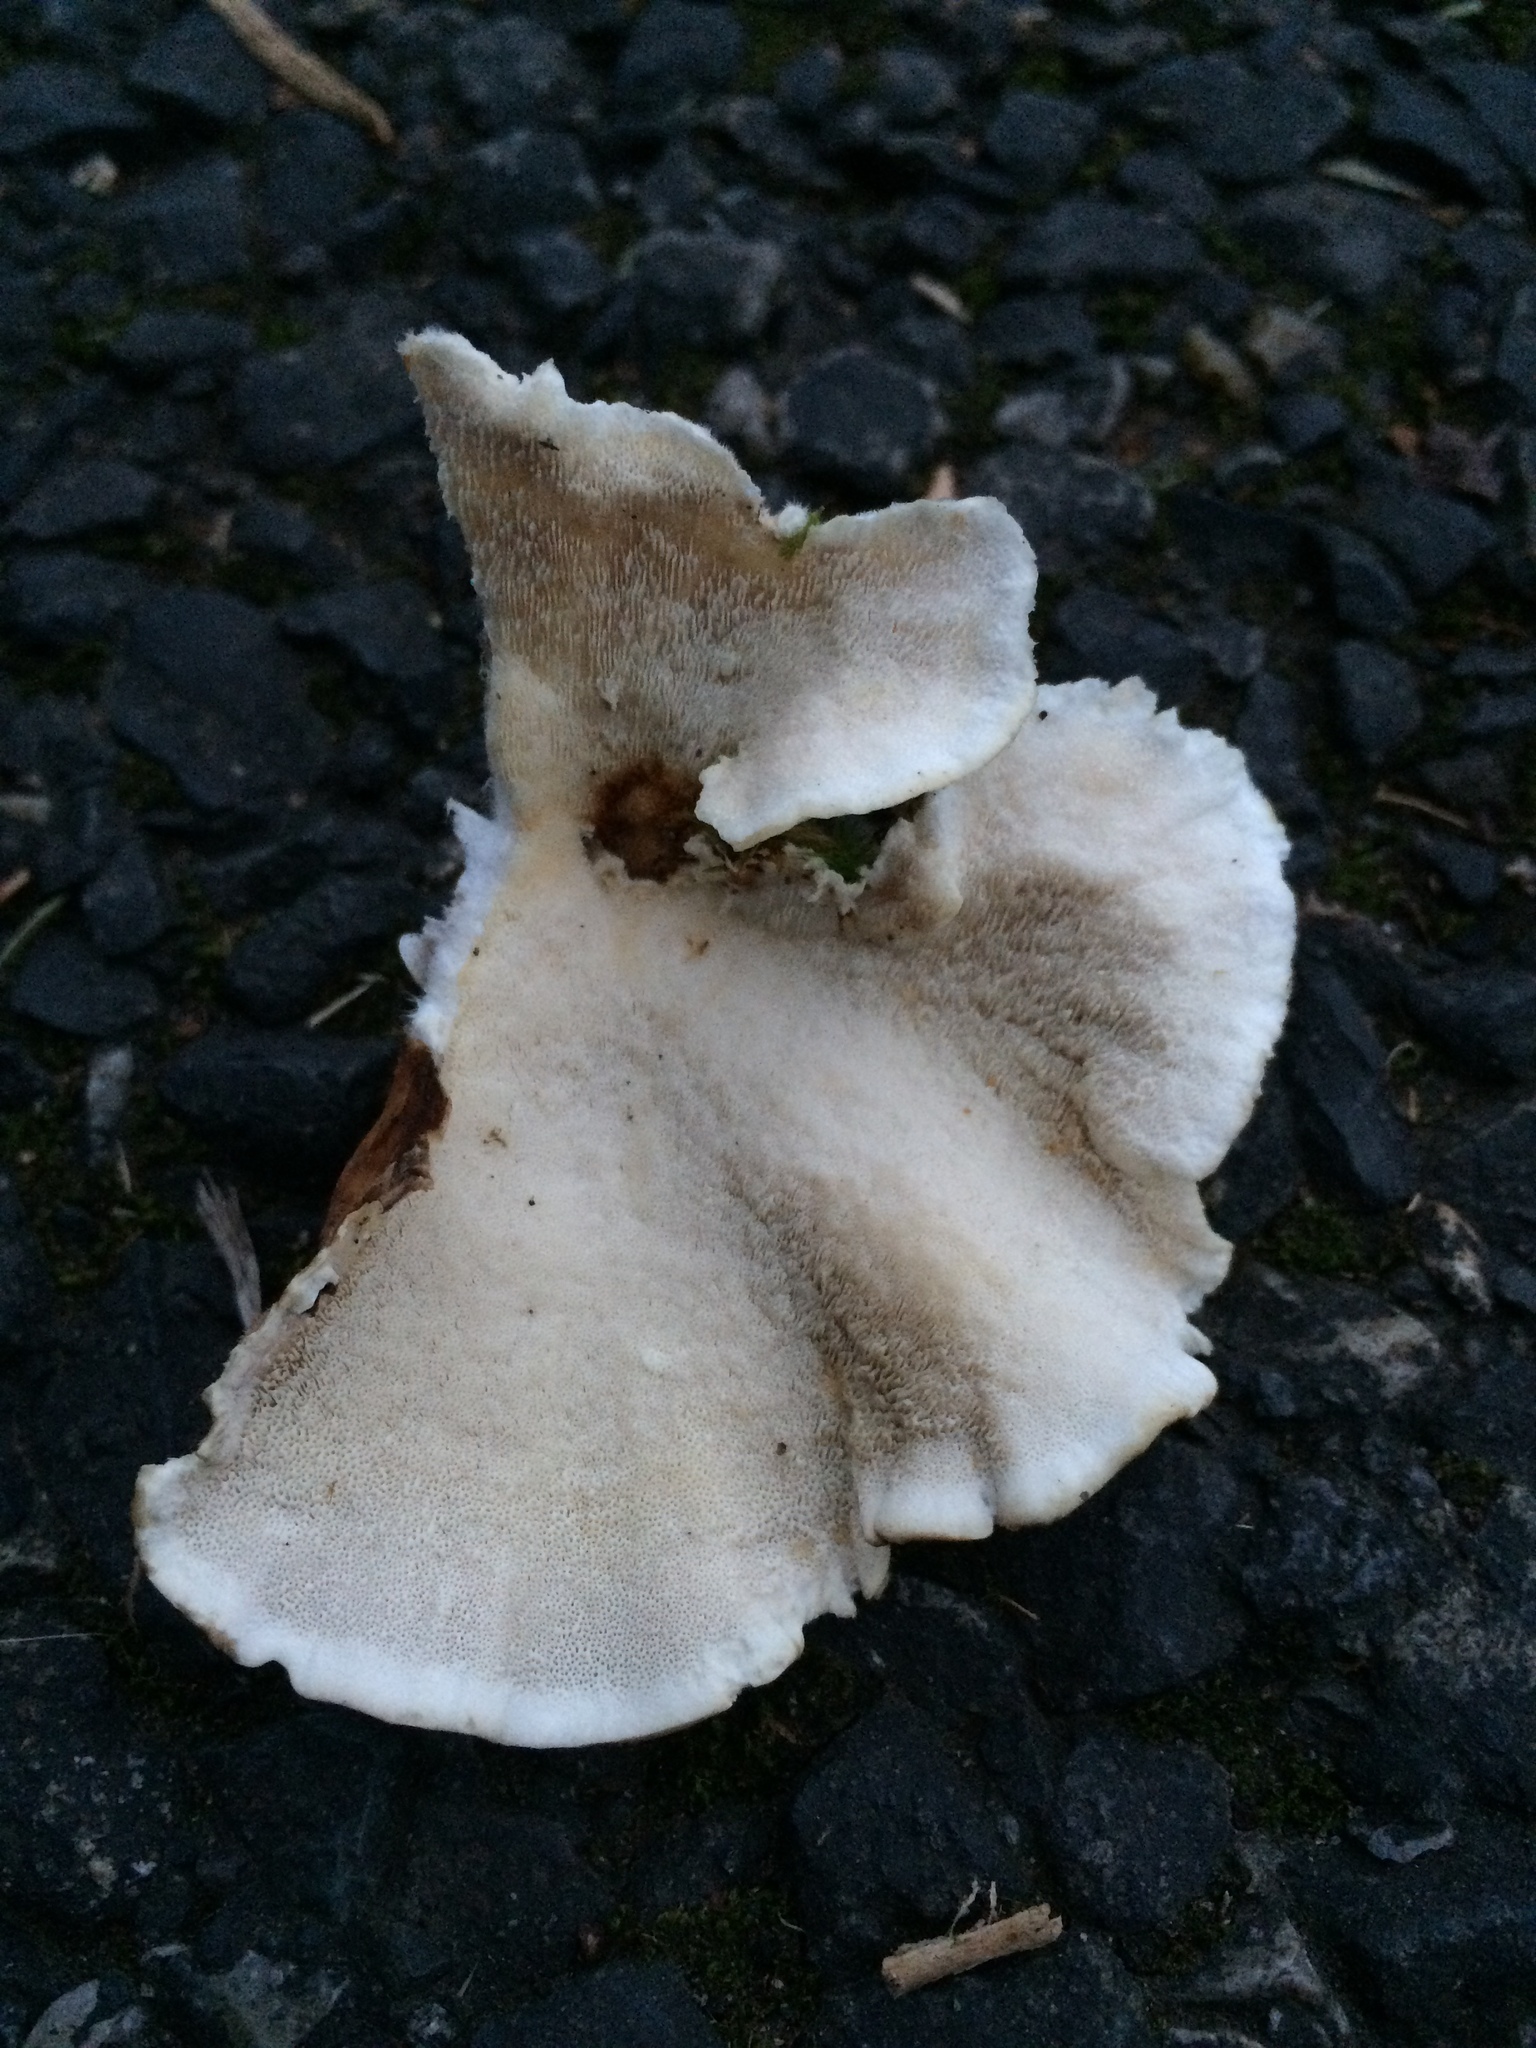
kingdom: Fungi
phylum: Basidiomycota
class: Agaricomycetes
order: Polyporales
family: Polyporaceae
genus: Trametes
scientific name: Trametes versicolor
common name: Turkeytail
